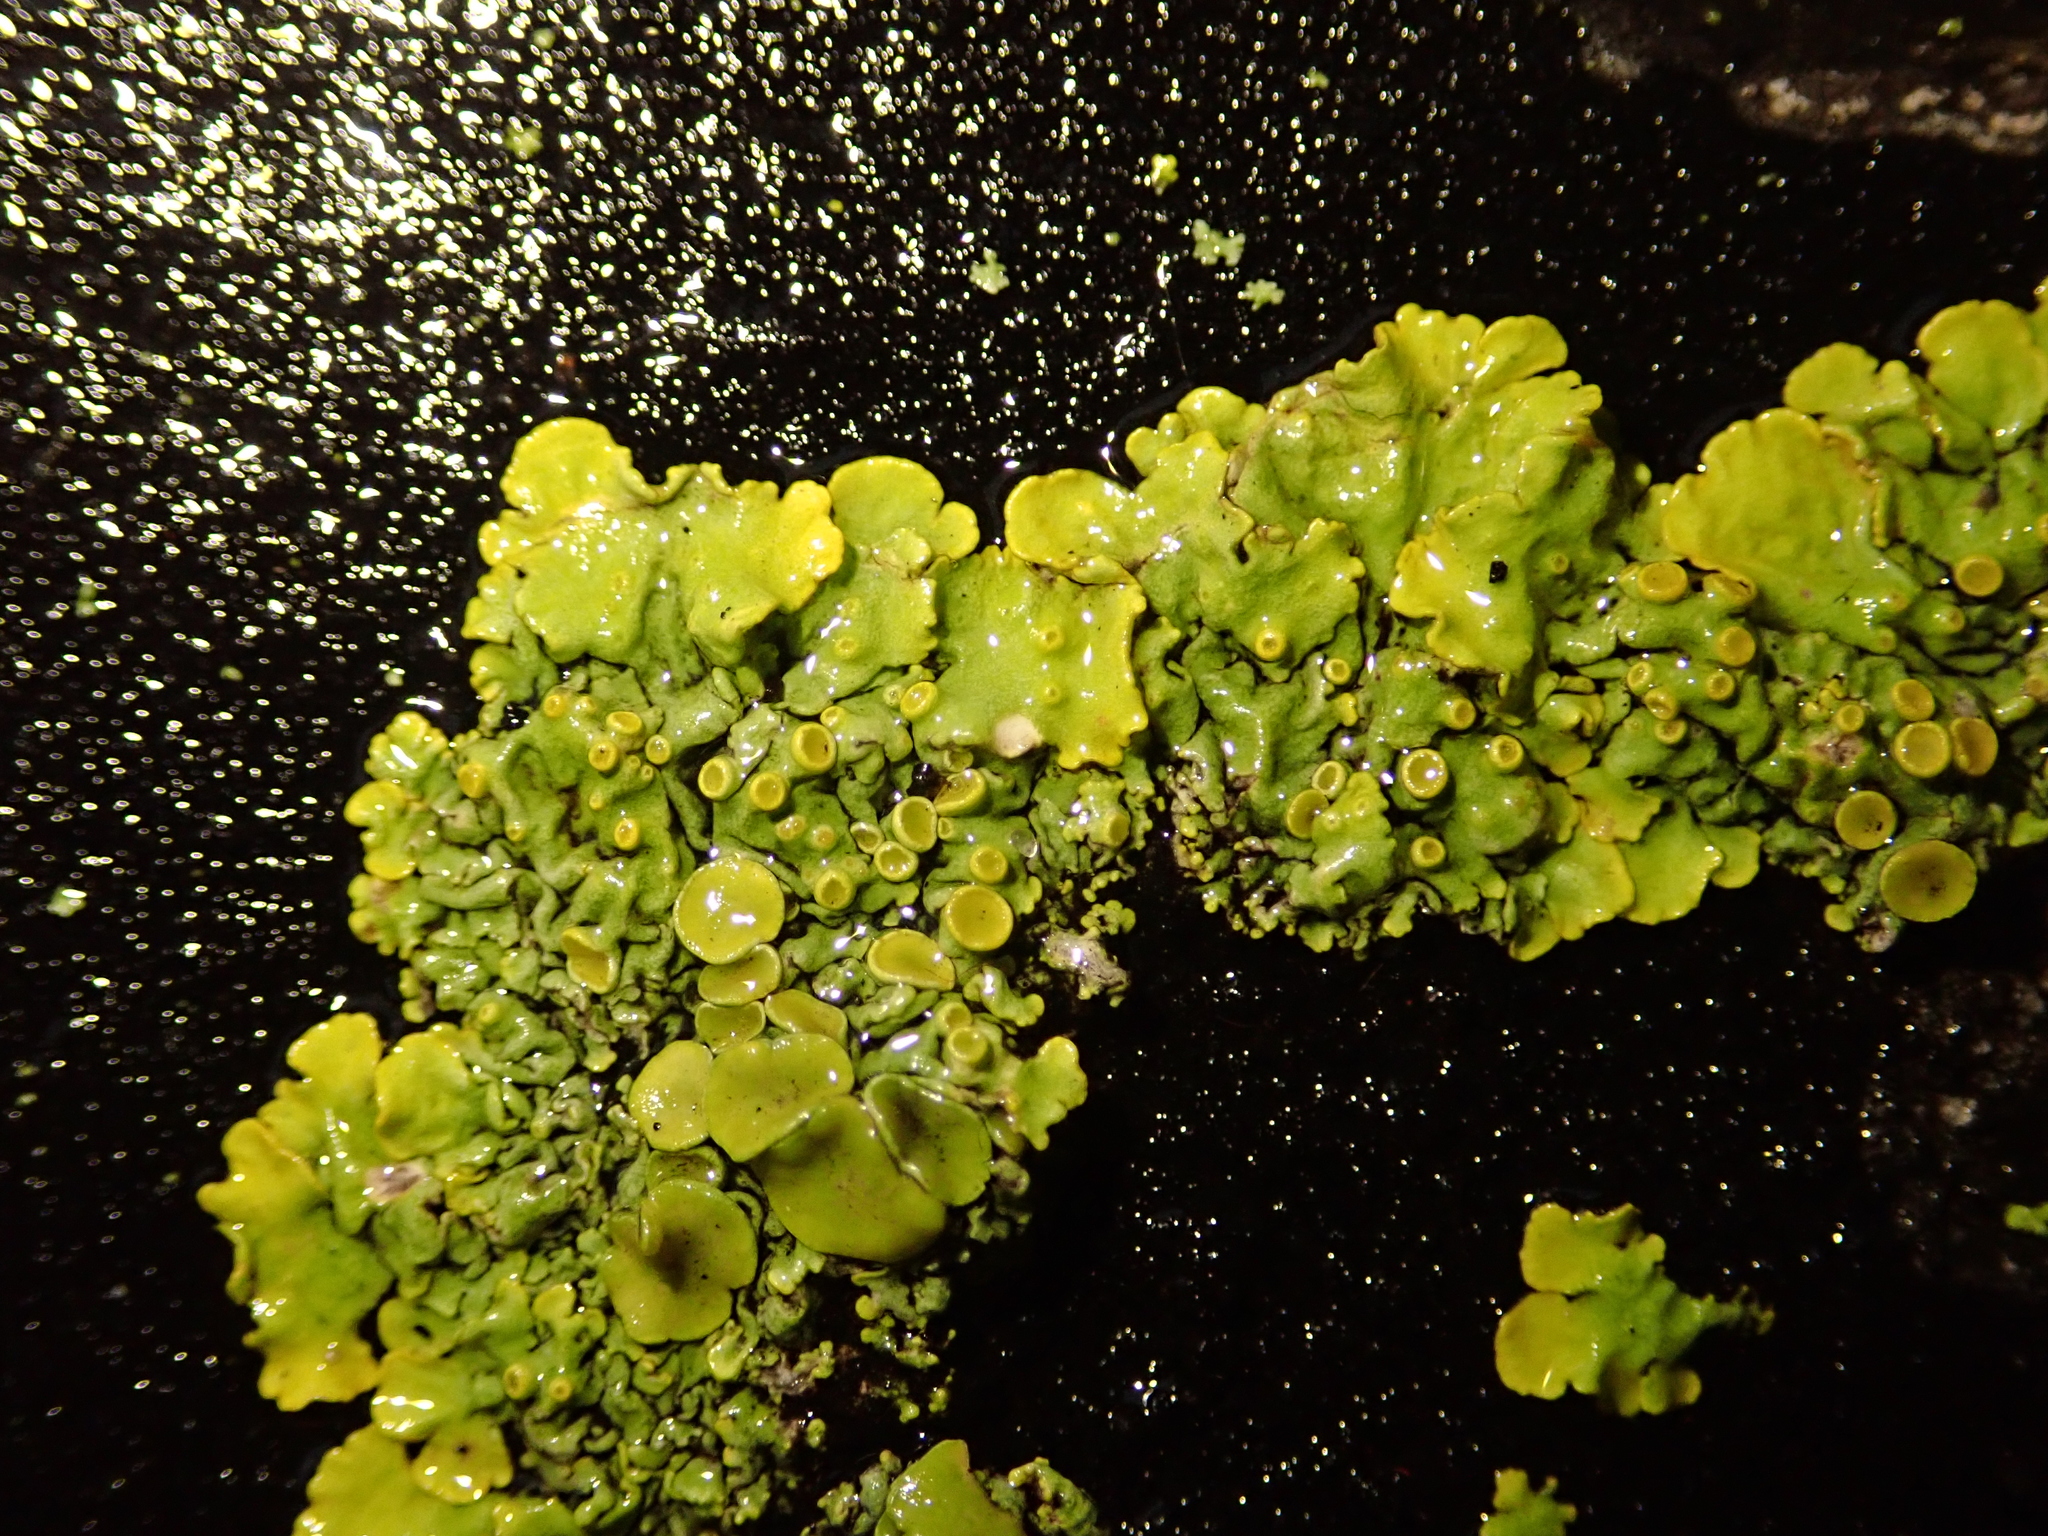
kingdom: Fungi
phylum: Ascomycota
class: Lecanoromycetes
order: Teloschistales
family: Teloschistaceae
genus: Xanthoria
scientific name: Xanthoria parietina
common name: Common orange lichen
